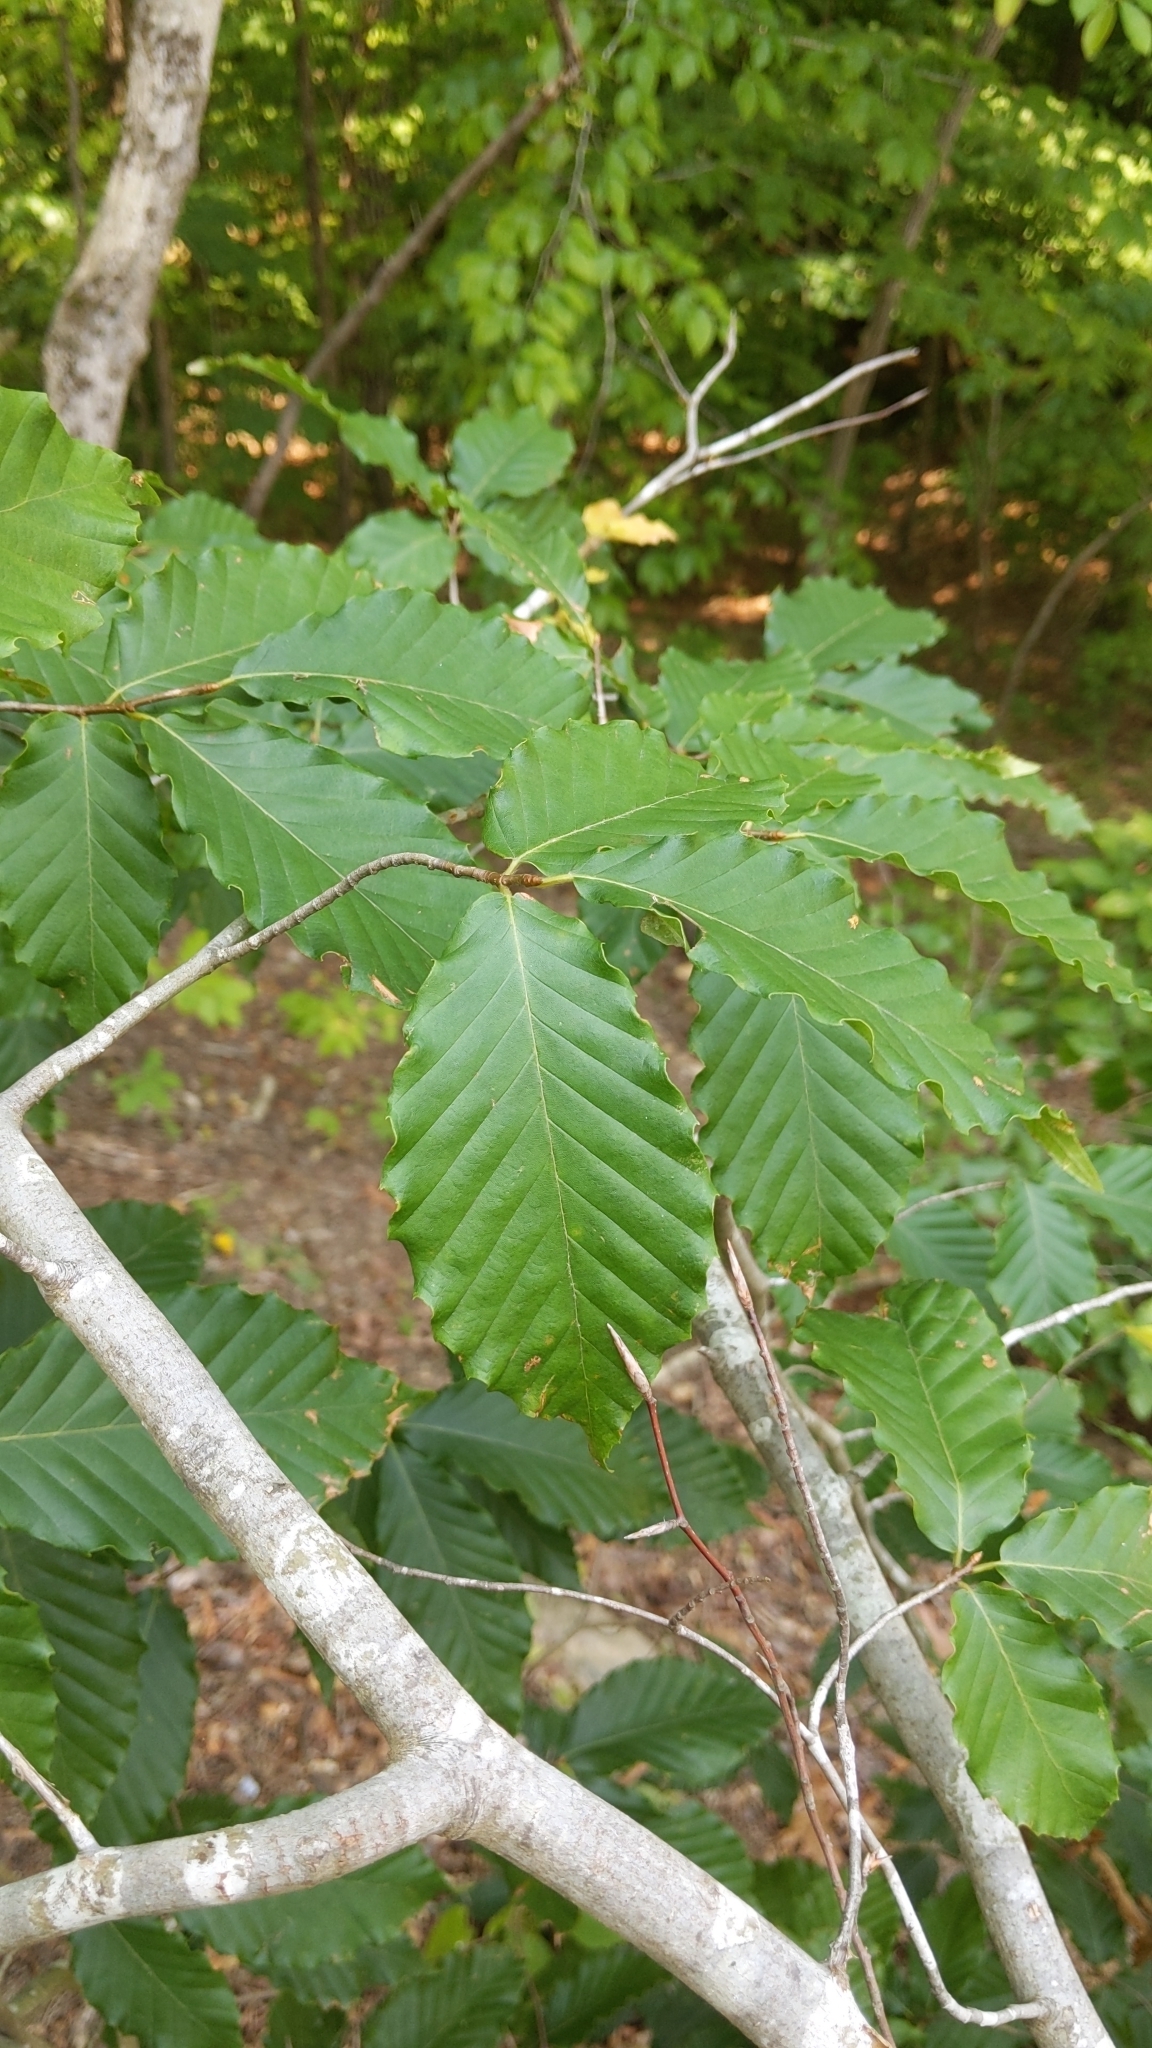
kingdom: Plantae
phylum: Tracheophyta
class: Magnoliopsida
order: Fagales
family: Fagaceae
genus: Fagus
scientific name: Fagus grandifolia
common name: American beech
